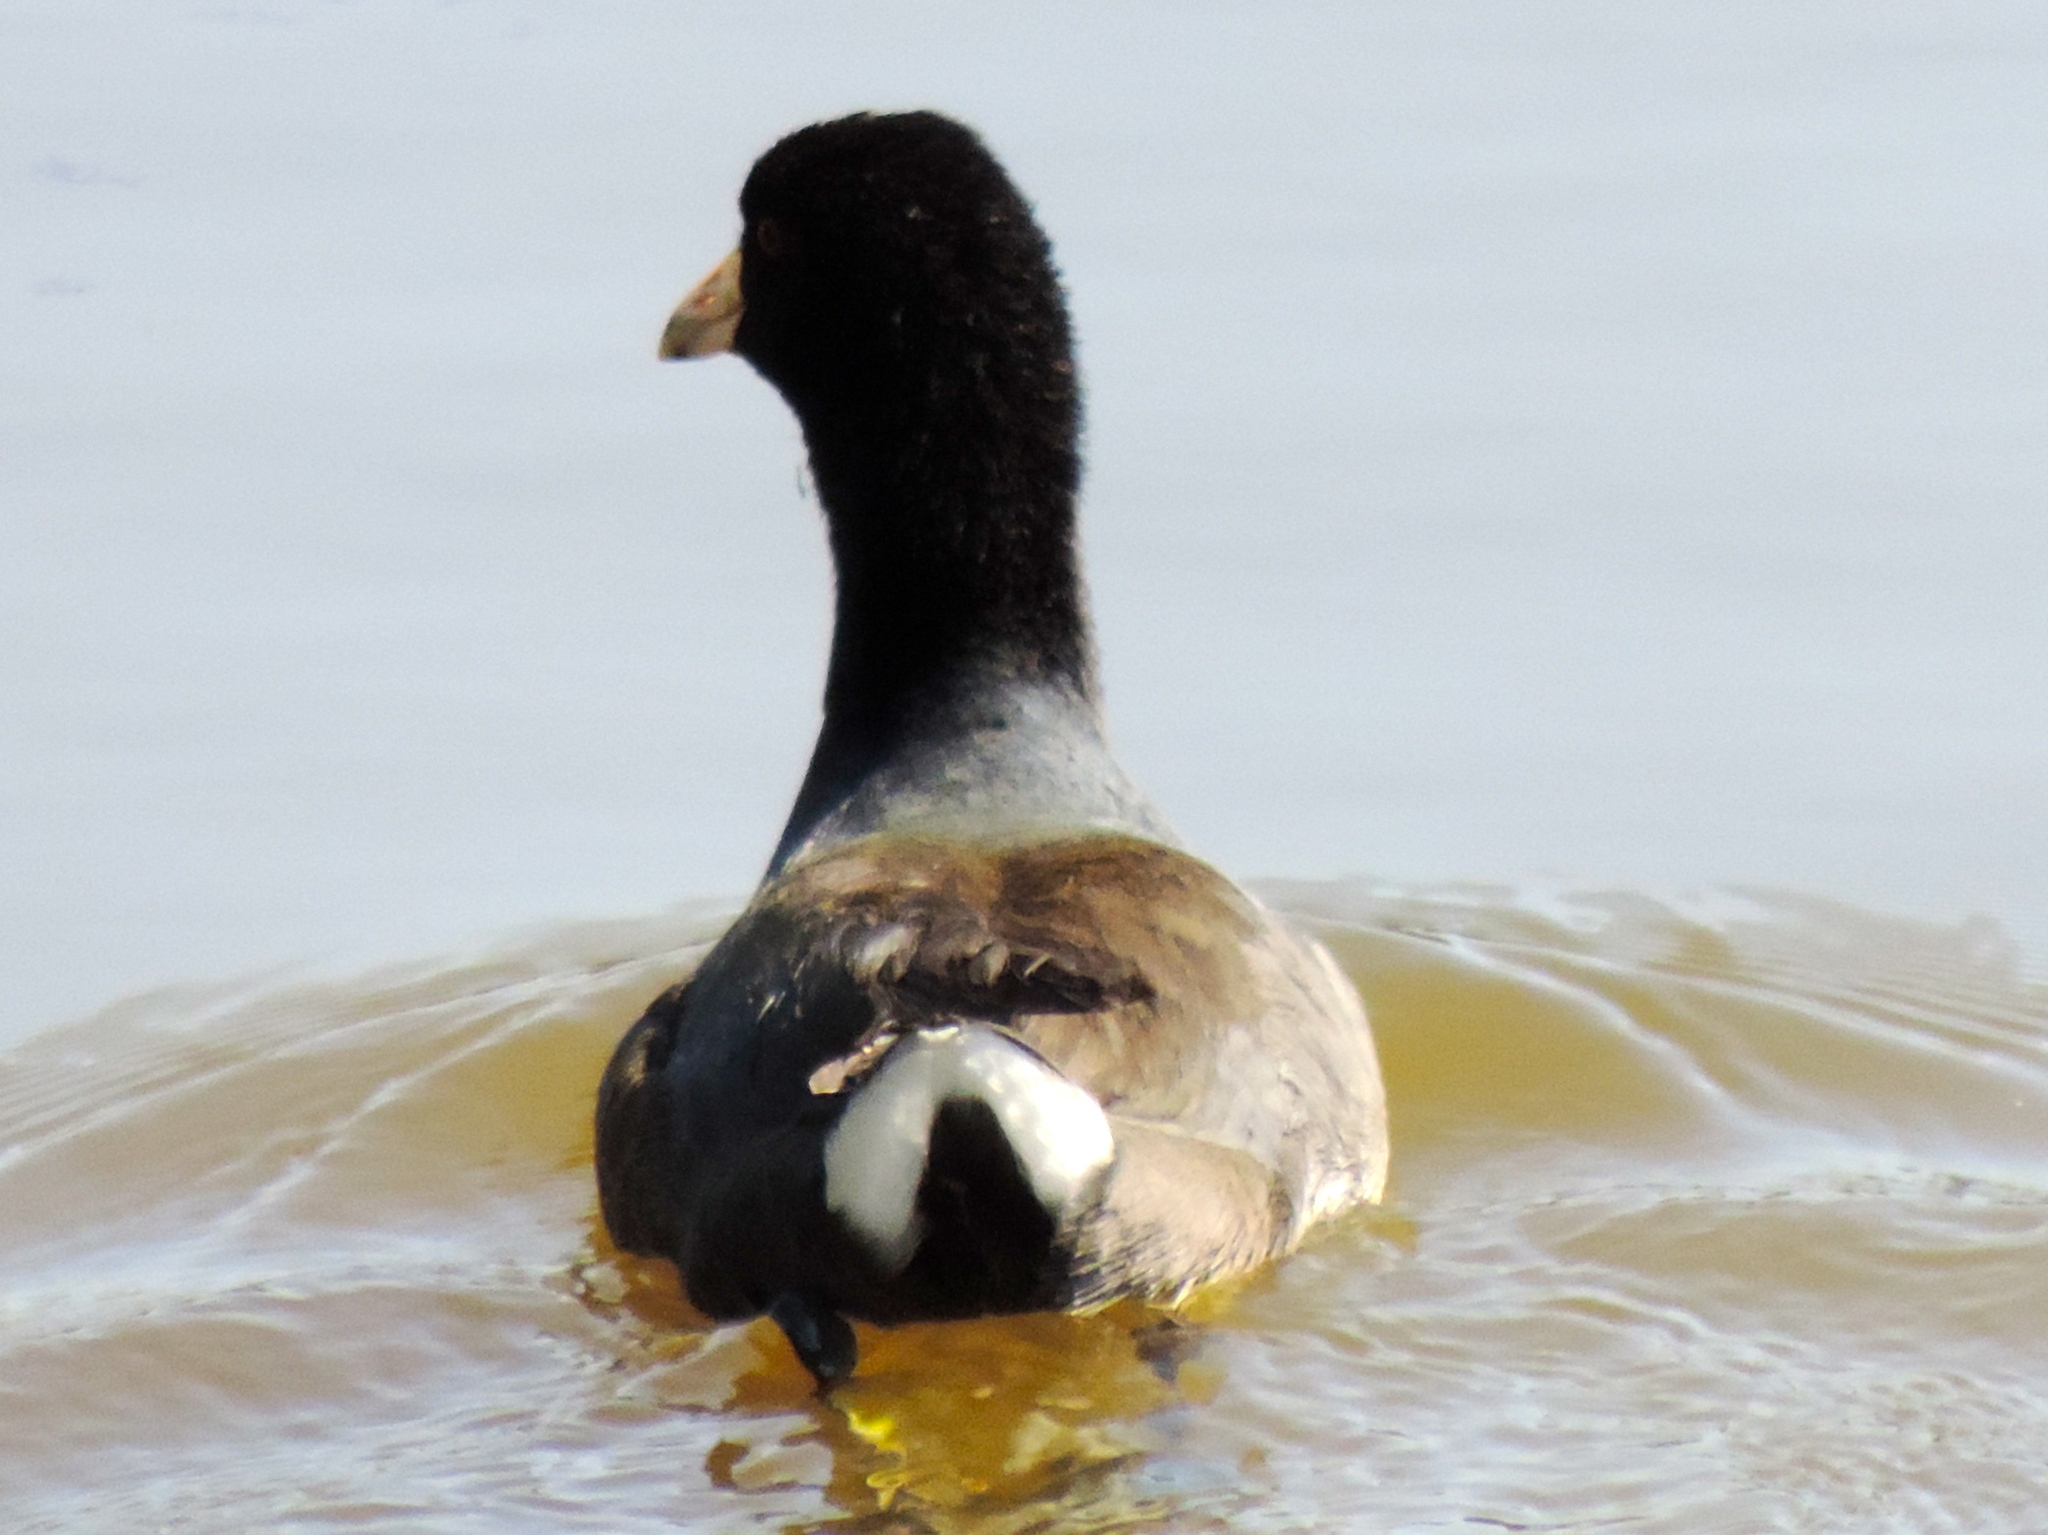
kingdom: Animalia
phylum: Chordata
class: Aves
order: Gruiformes
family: Rallidae
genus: Fulica
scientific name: Fulica americana
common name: American coot
